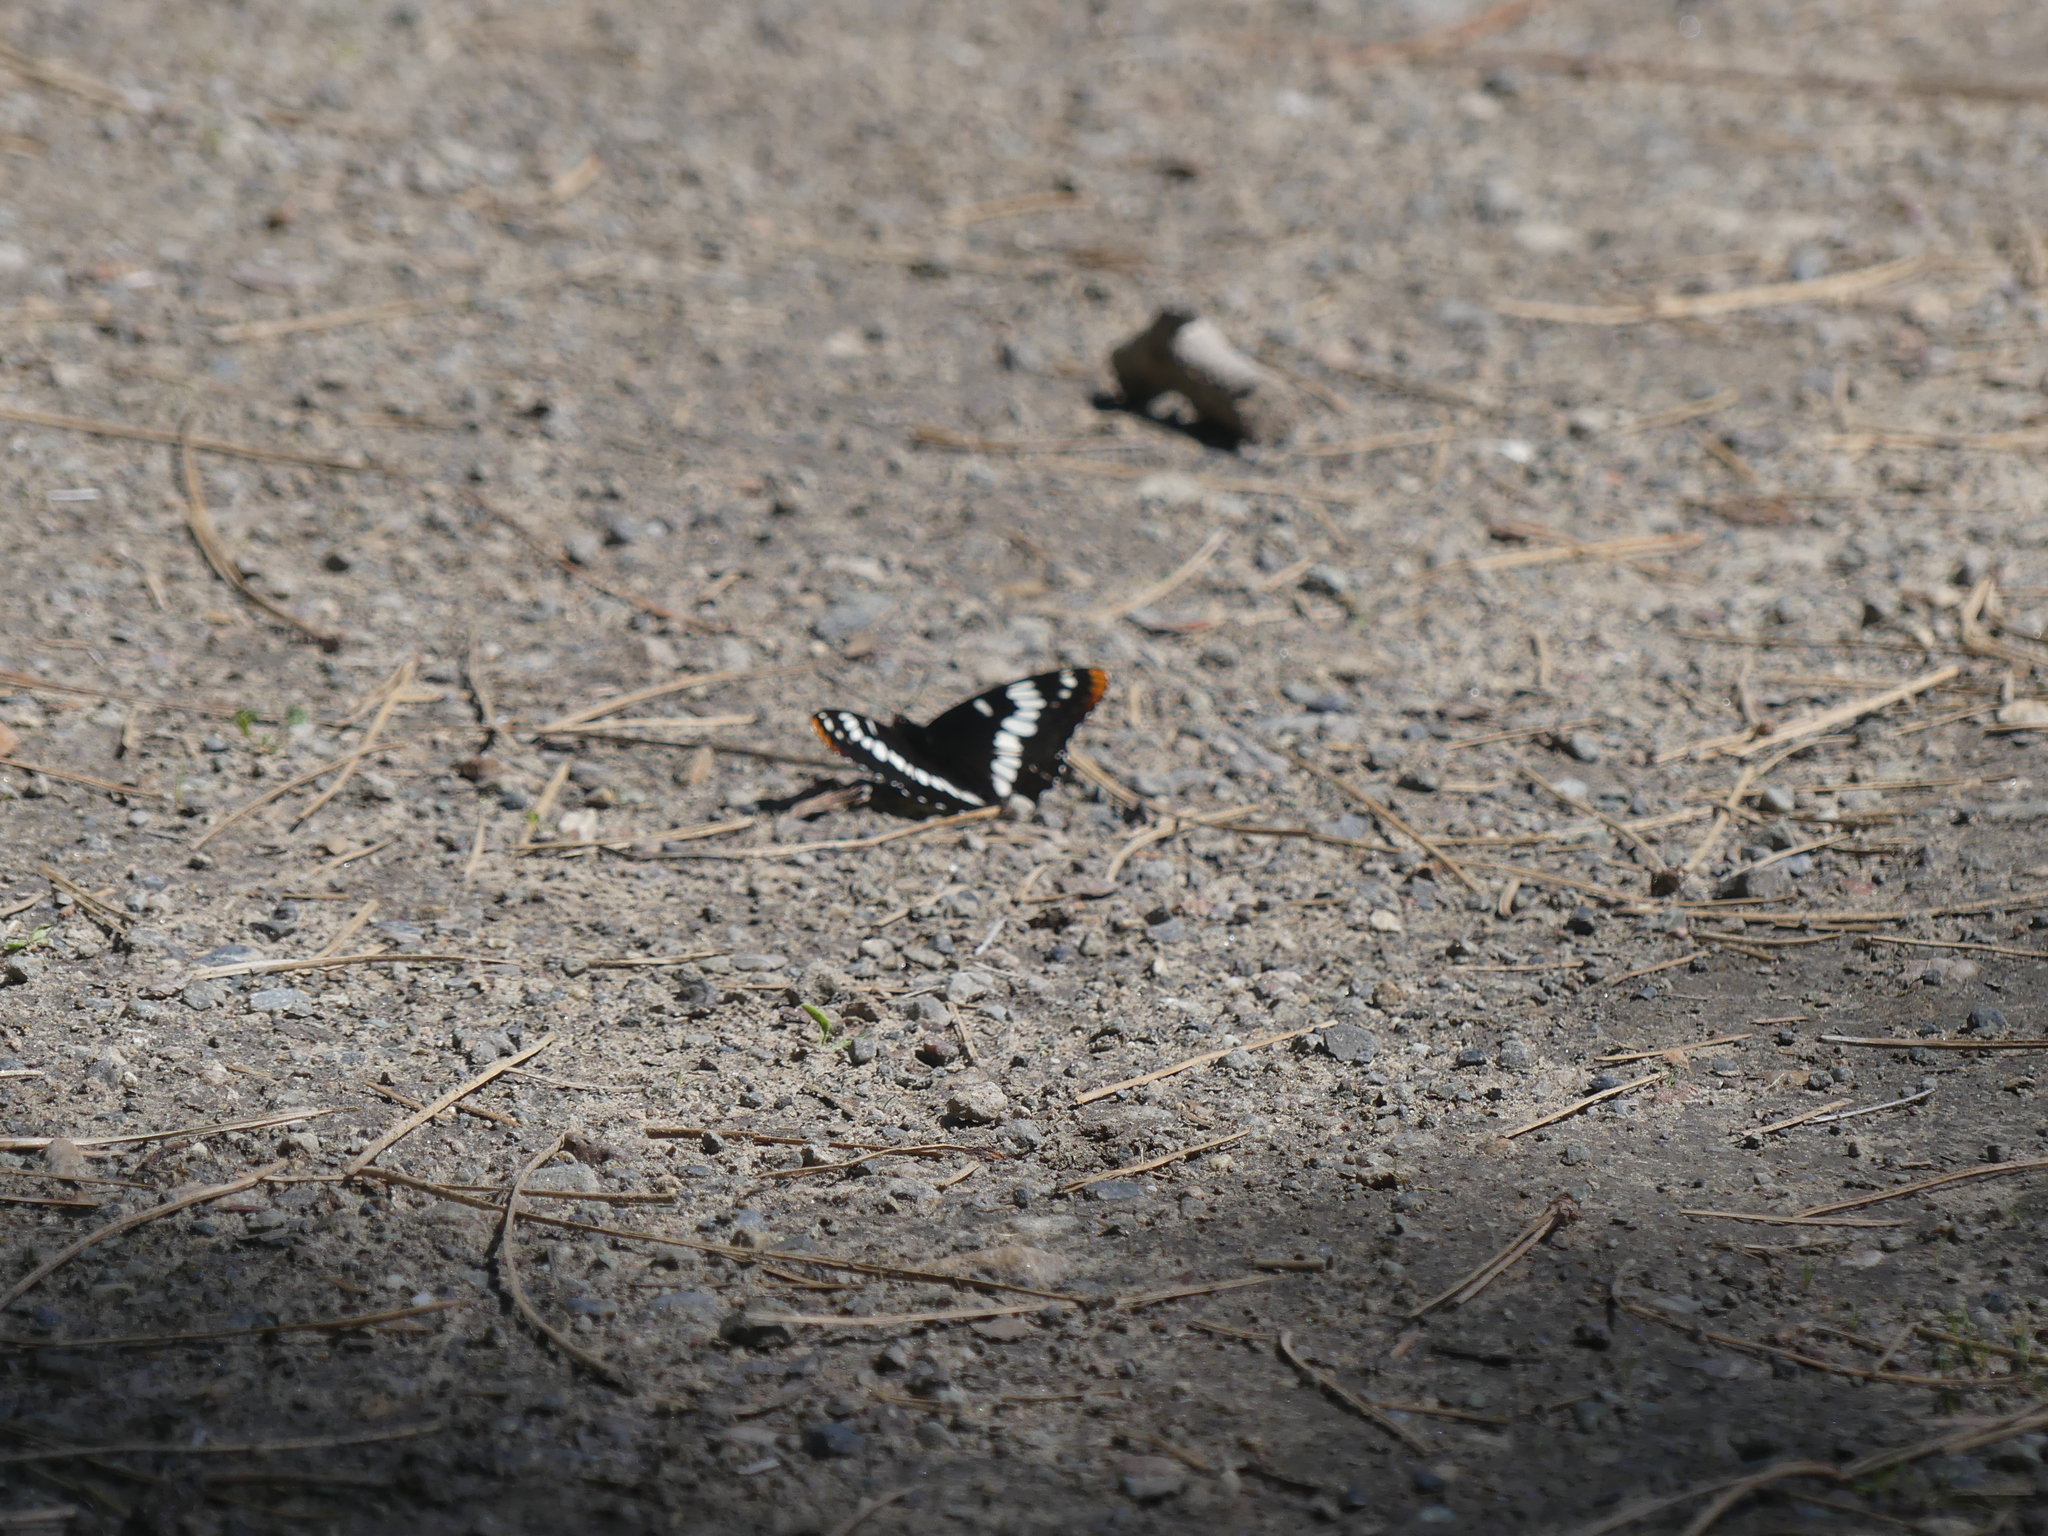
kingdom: Animalia
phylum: Arthropoda
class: Insecta
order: Lepidoptera
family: Nymphalidae
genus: Limenitis
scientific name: Limenitis lorquini
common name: Lorquin's admiral
